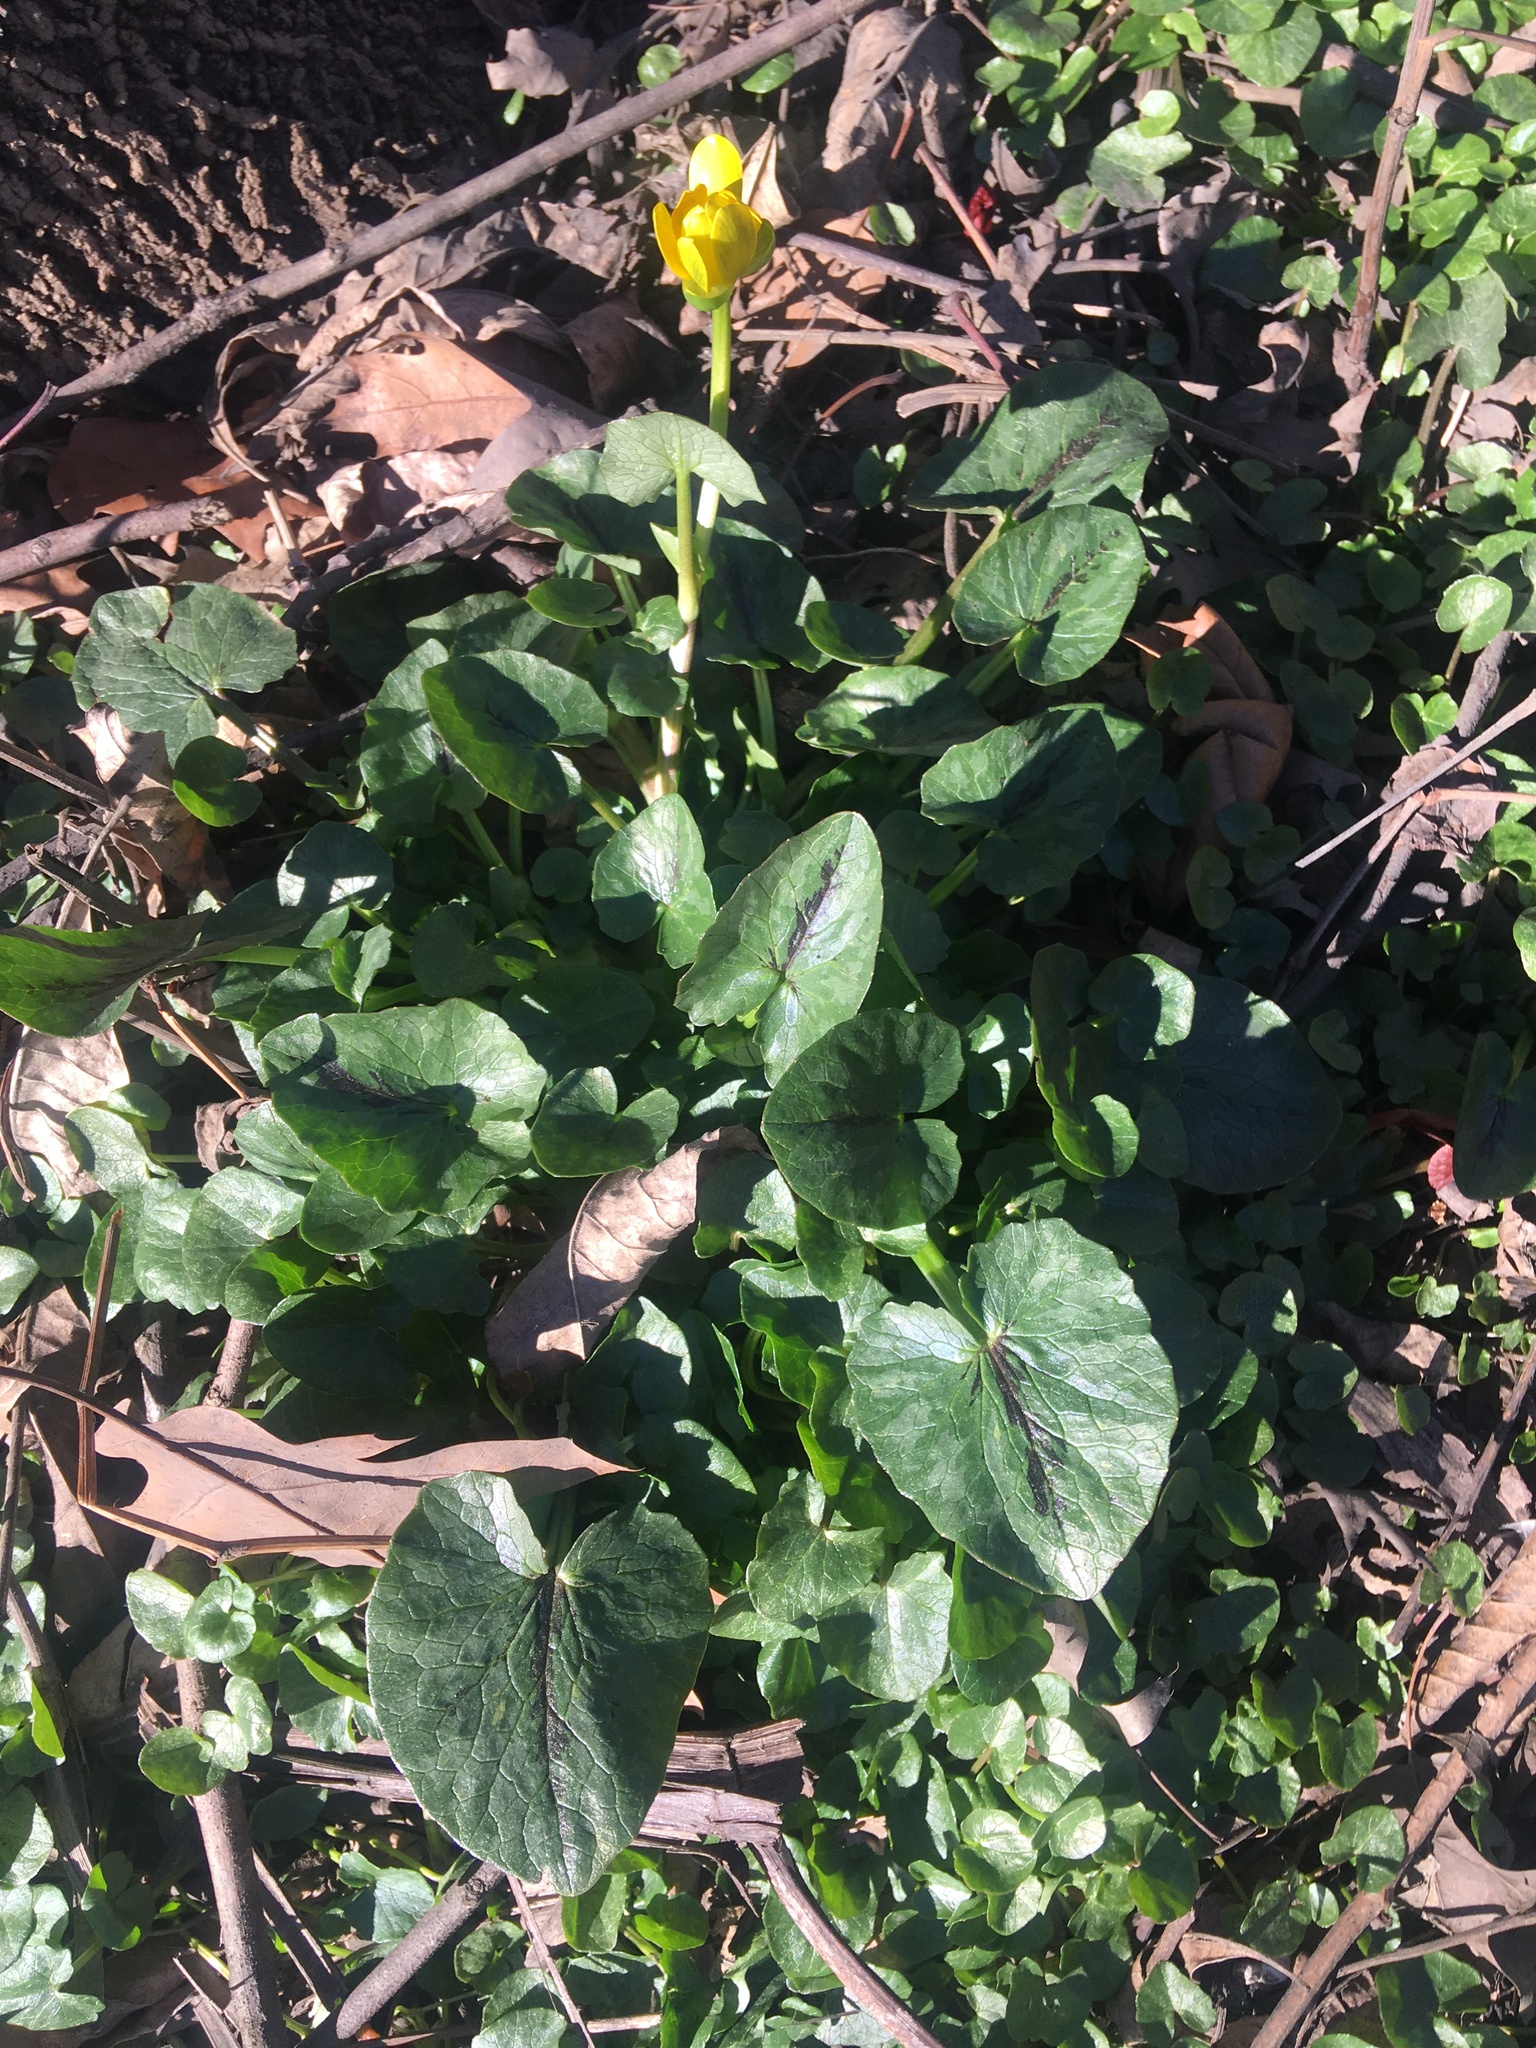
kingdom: Plantae
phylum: Tracheophyta
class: Magnoliopsida
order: Ranunculales
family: Ranunculaceae
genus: Ficaria
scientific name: Ficaria verna
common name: Lesser celandine
